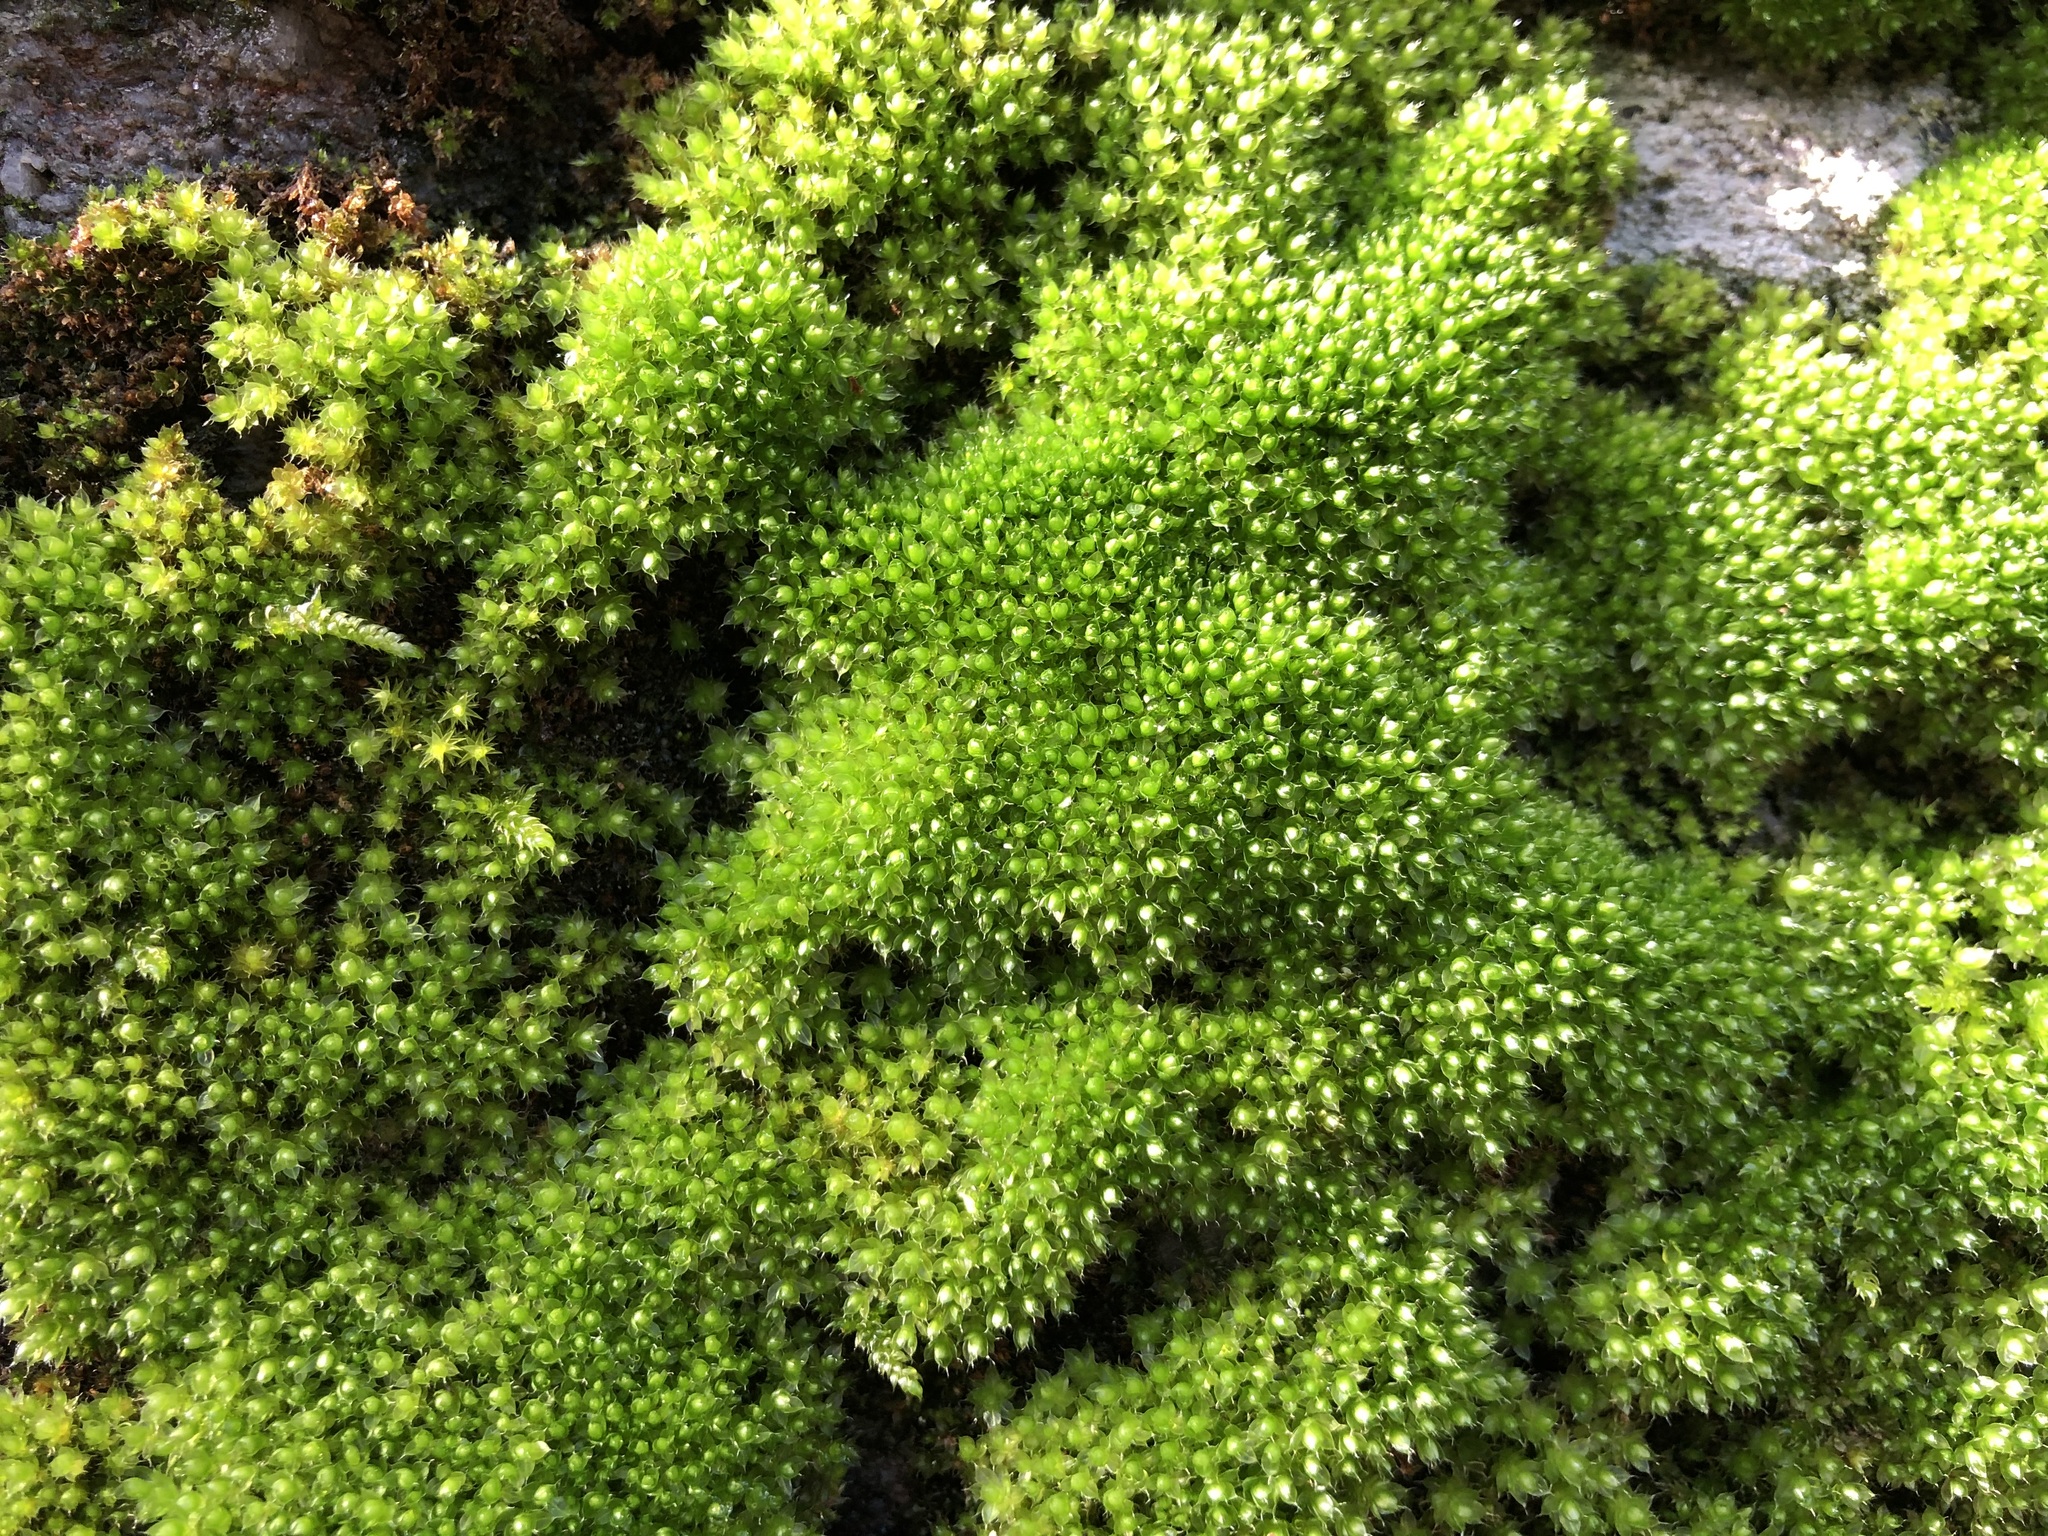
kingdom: Plantae
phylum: Bryophyta
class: Bryopsida
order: Bryales
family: Bryaceae
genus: Rosulabryum
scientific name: Rosulabryum capillare
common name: Capillary thread-moss
